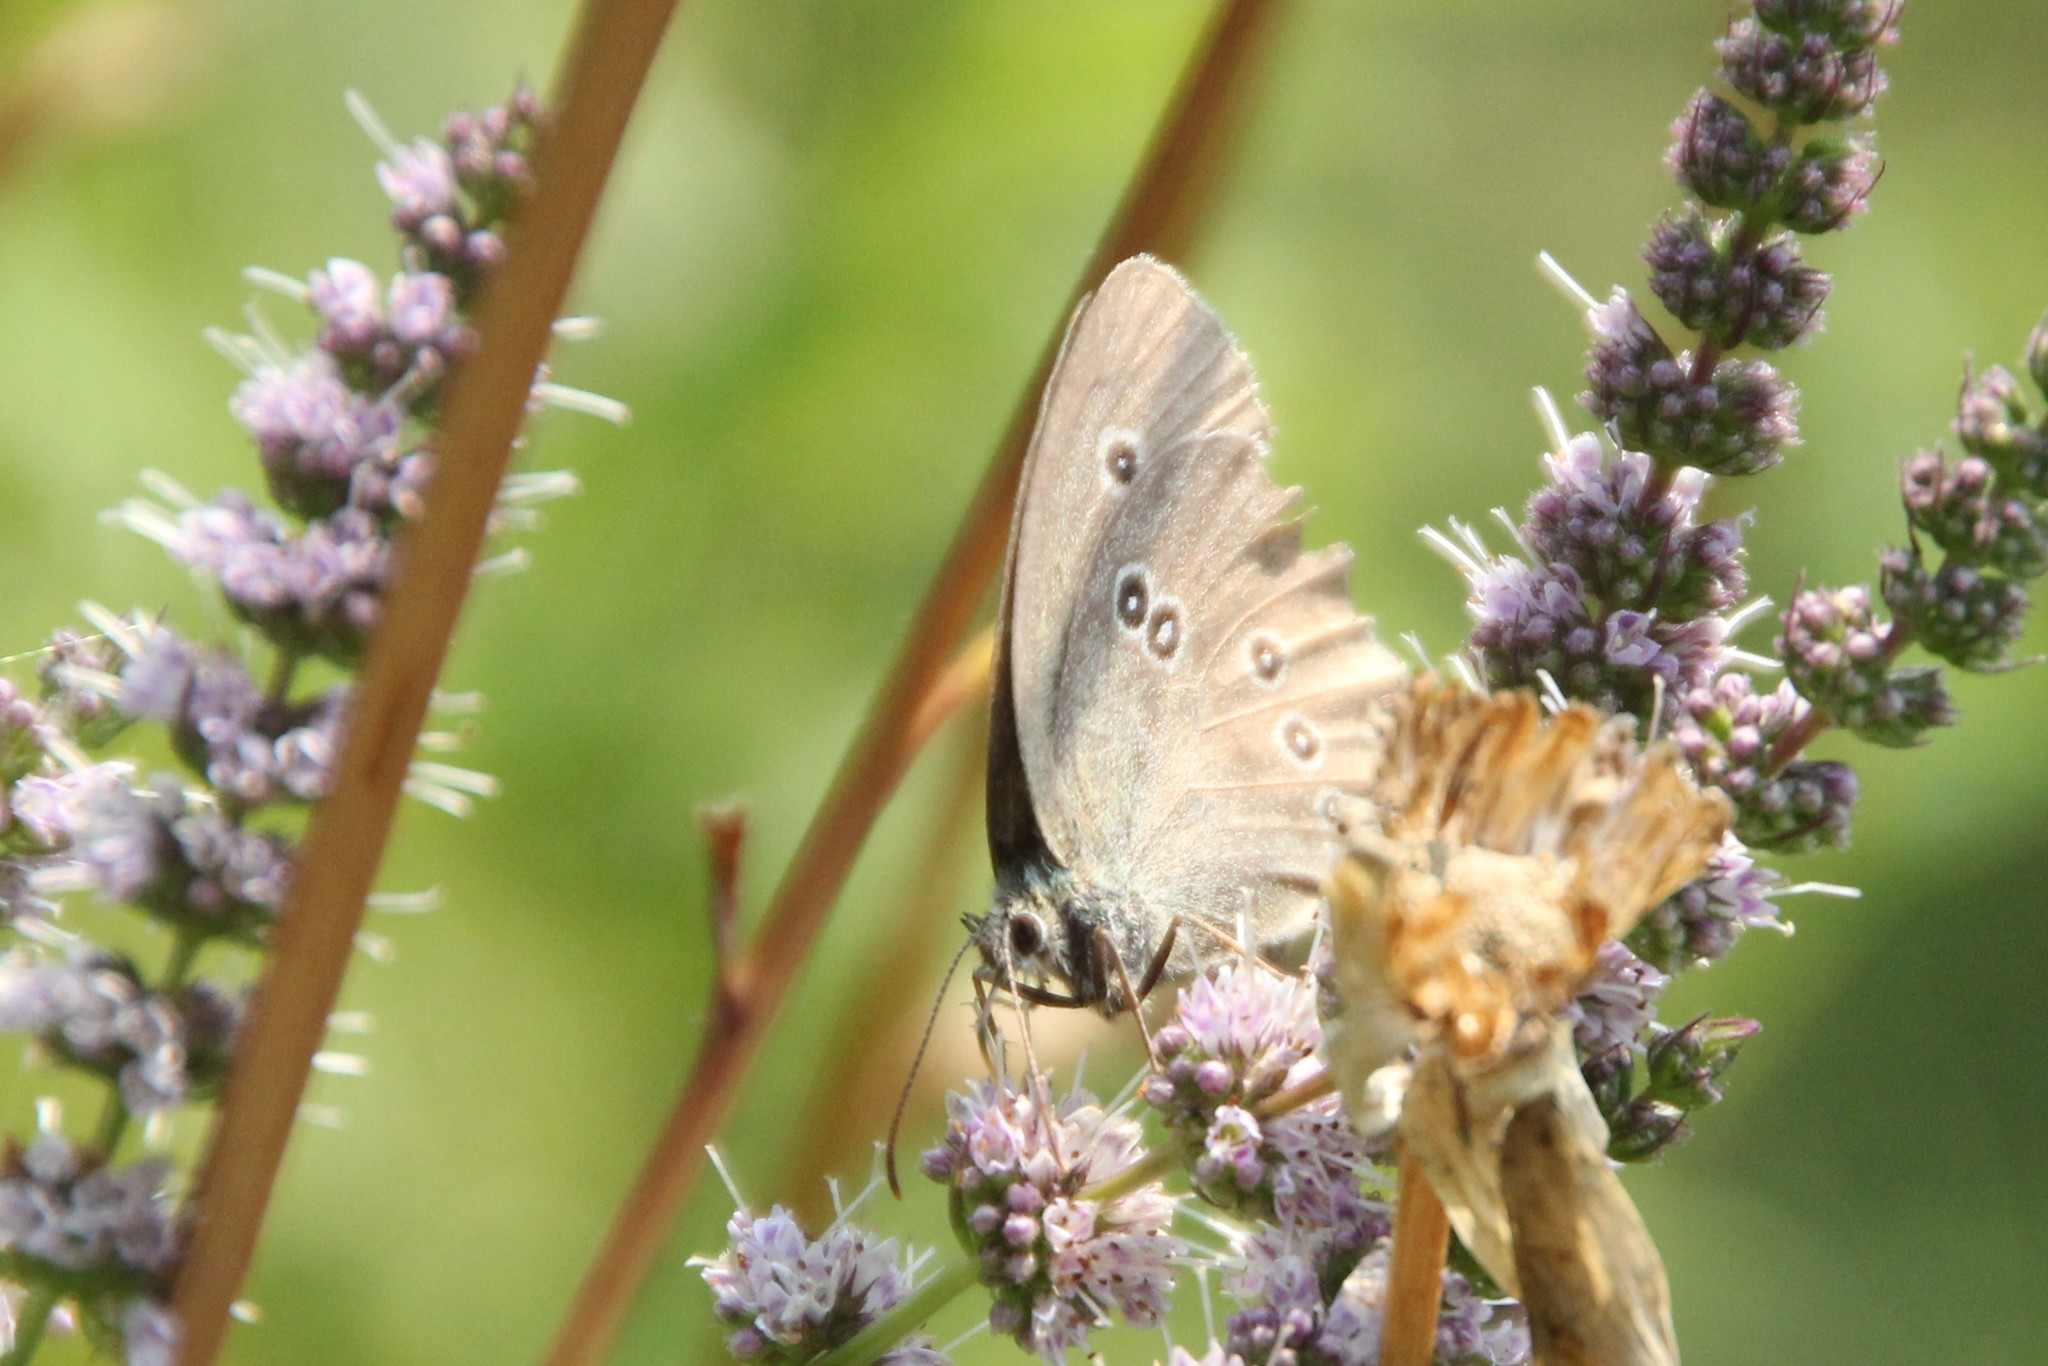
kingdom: Animalia
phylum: Arthropoda
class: Insecta
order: Lepidoptera
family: Nymphalidae
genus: Aphantopus
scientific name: Aphantopus hyperantus
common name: Ringlet
